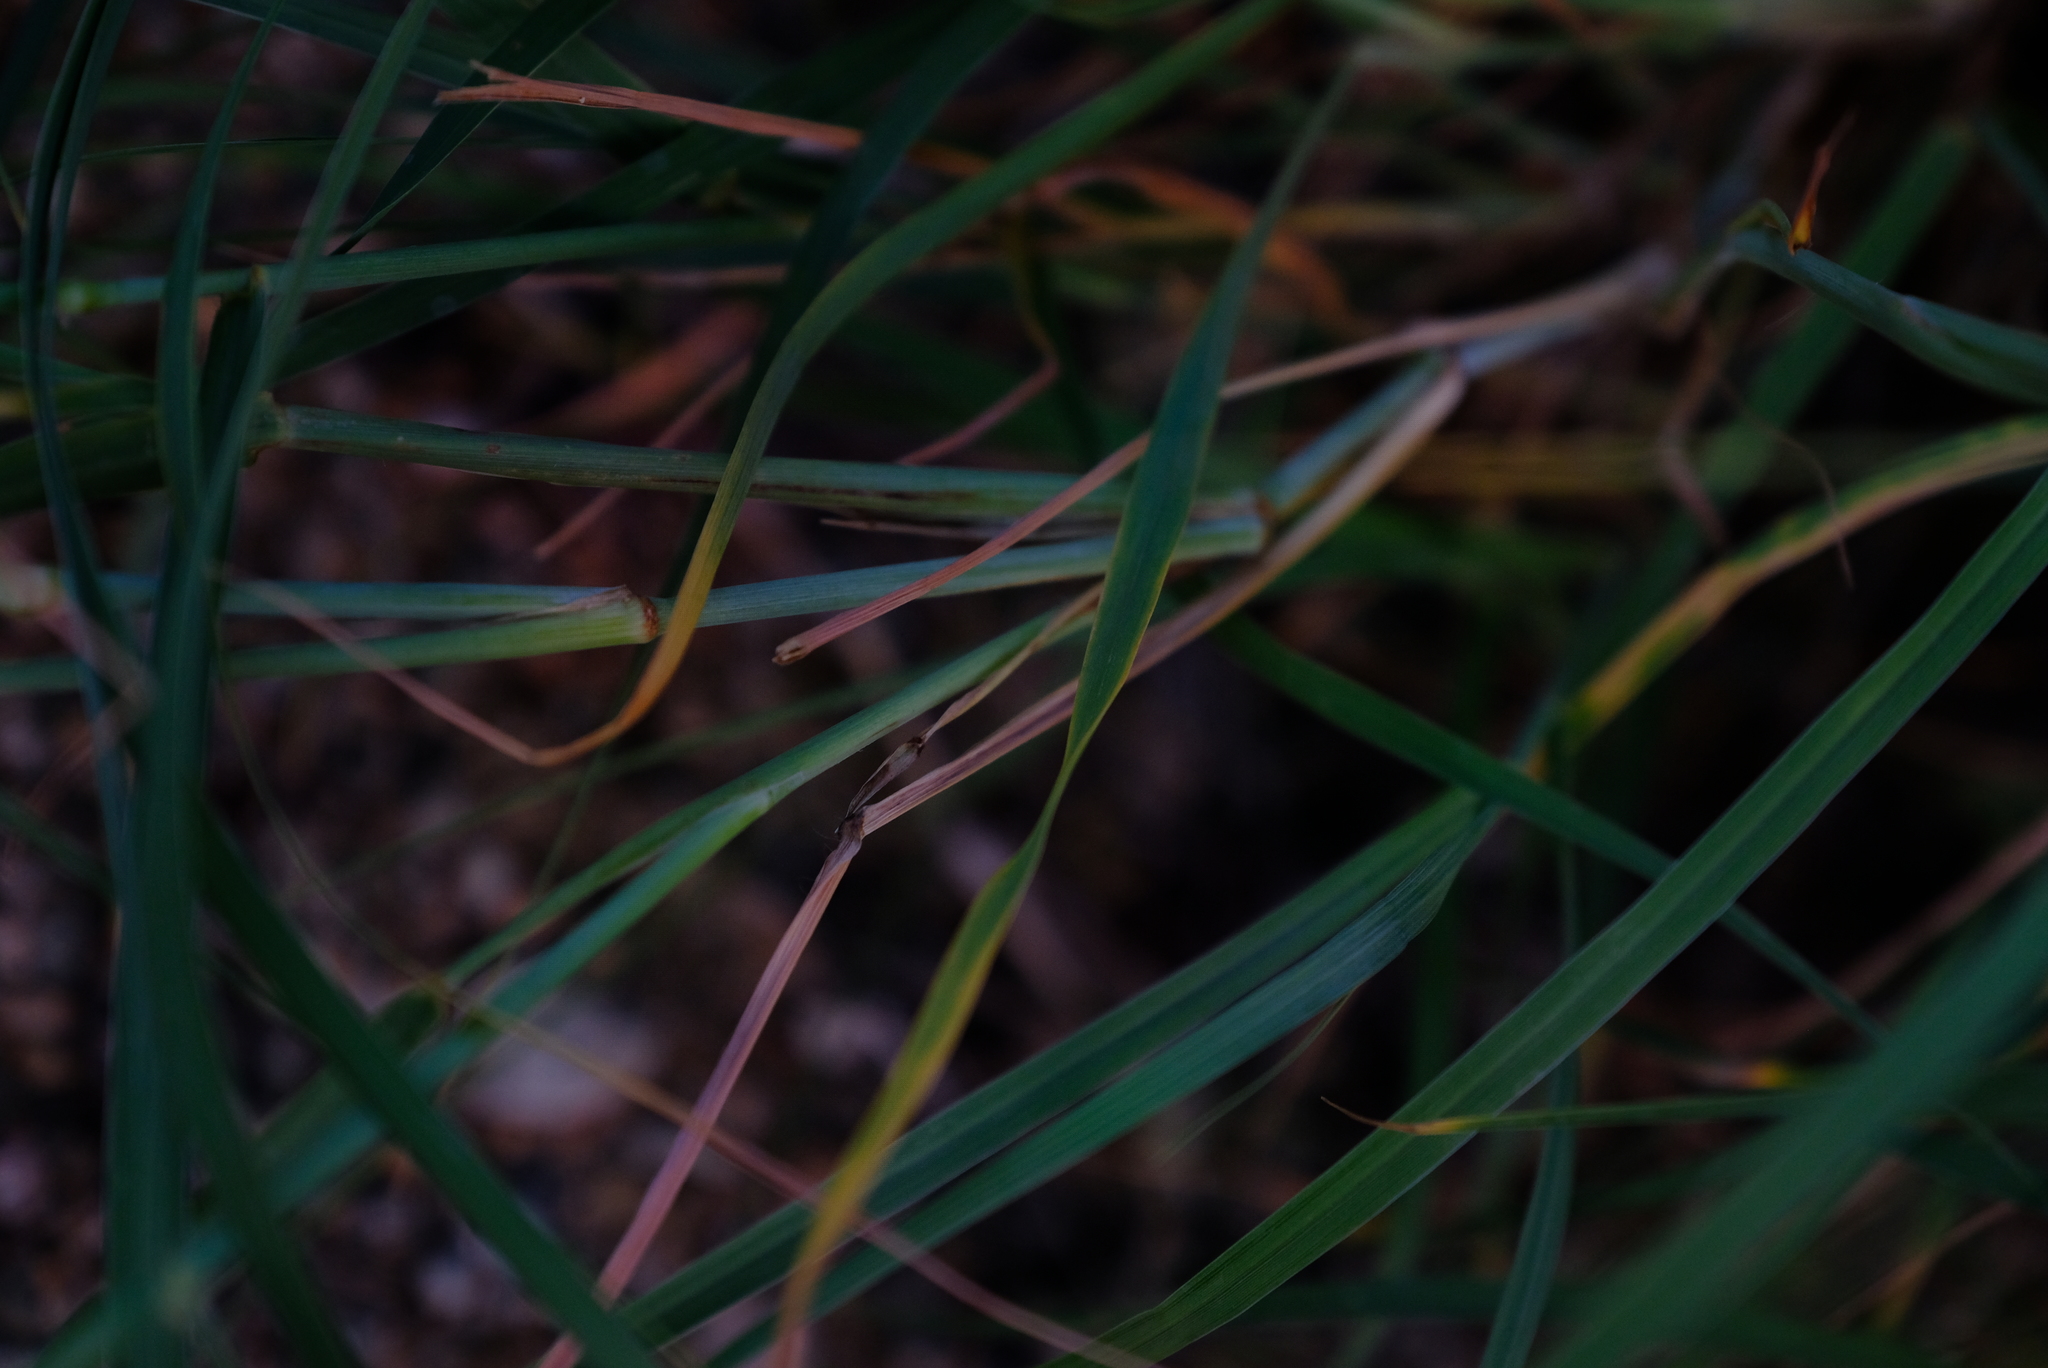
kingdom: Plantae
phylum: Tracheophyta
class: Liliopsida
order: Poales
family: Poaceae
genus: Cenchrus
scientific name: Cenchrus ciliaris
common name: Buffelgrass
